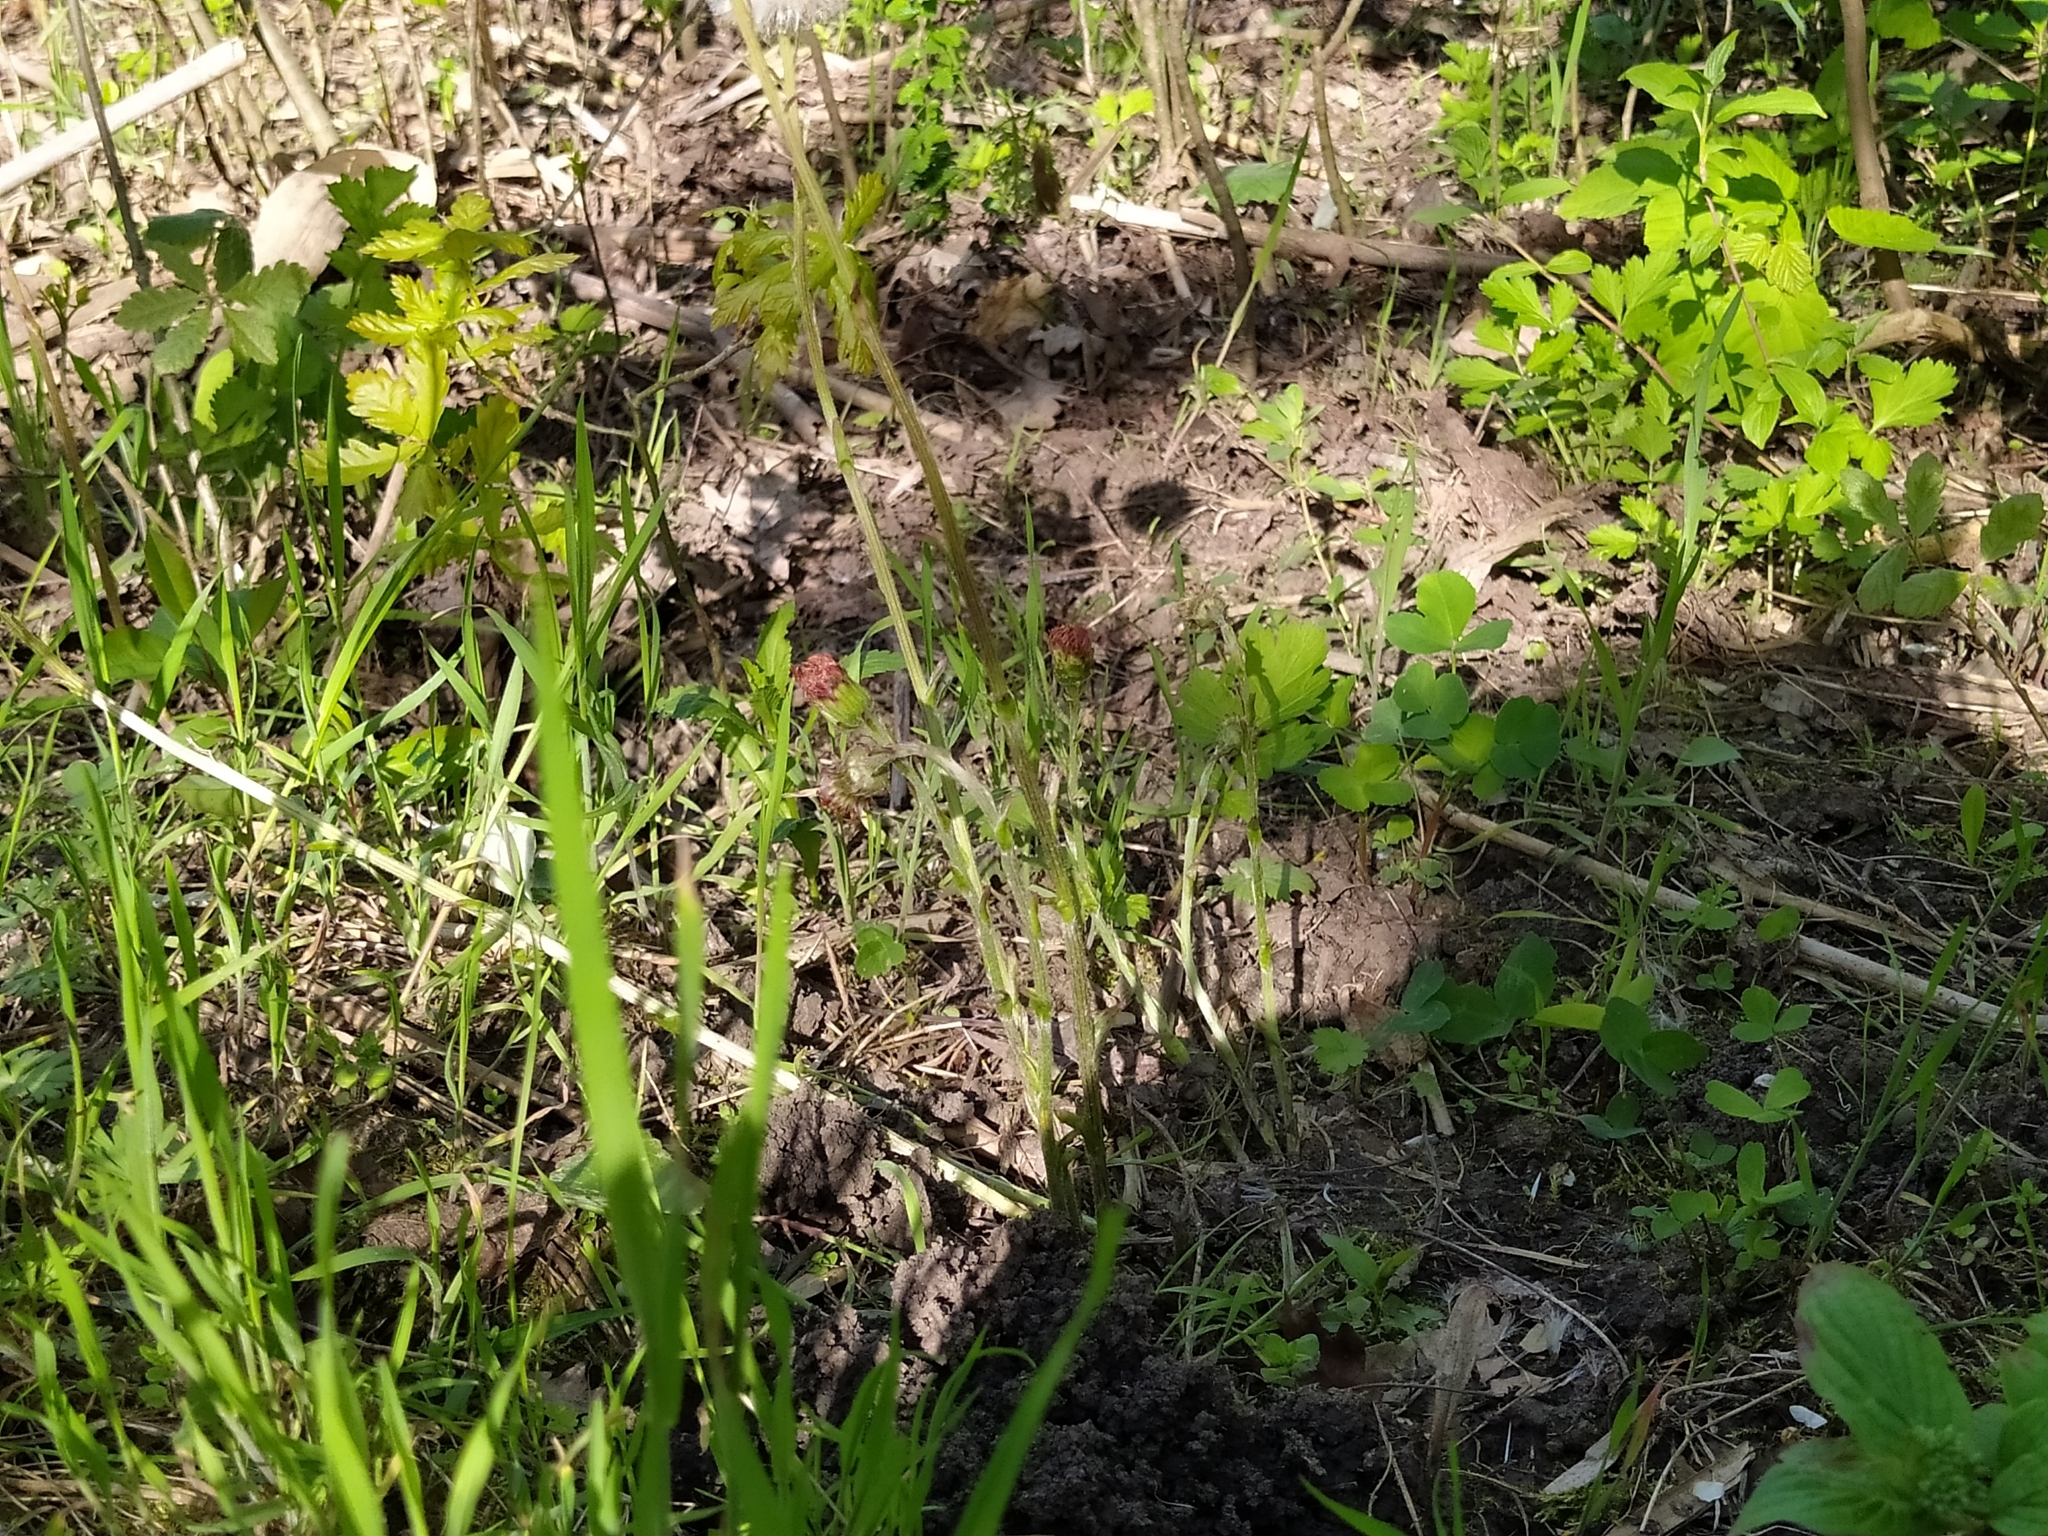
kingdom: Plantae
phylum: Tracheophyta
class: Magnoliopsida
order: Asterales
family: Asteraceae
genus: Tussilago
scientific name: Tussilago farfara
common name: Coltsfoot
